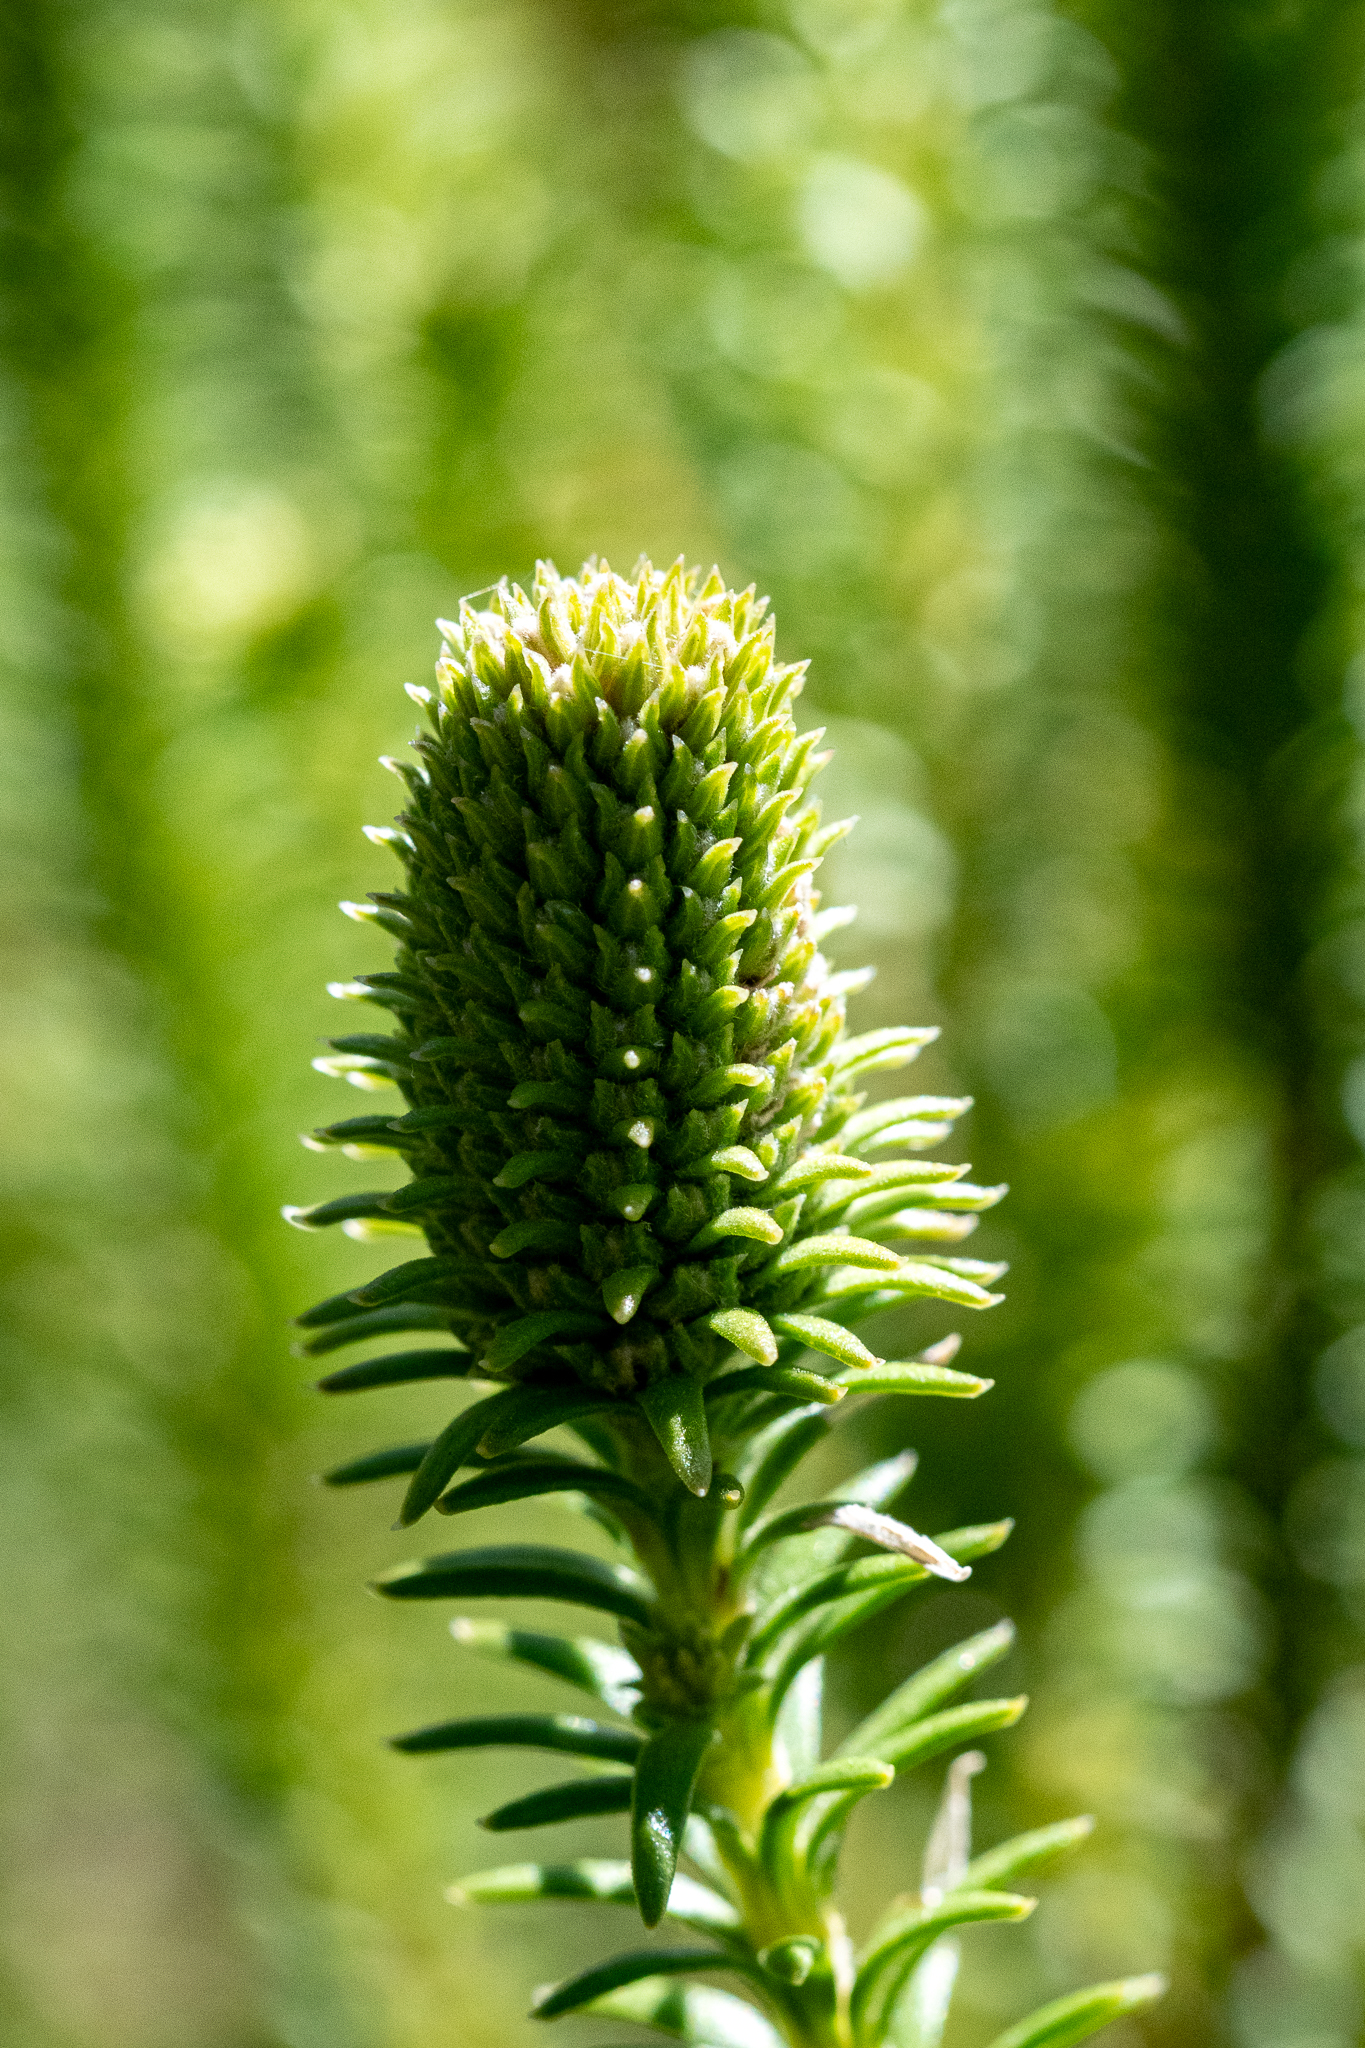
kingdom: Plantae
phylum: Tracheophyta
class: Magnoliopsida
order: Lamiales
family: Stilbaceae
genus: Stilbe
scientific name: Stilbe albiflora
